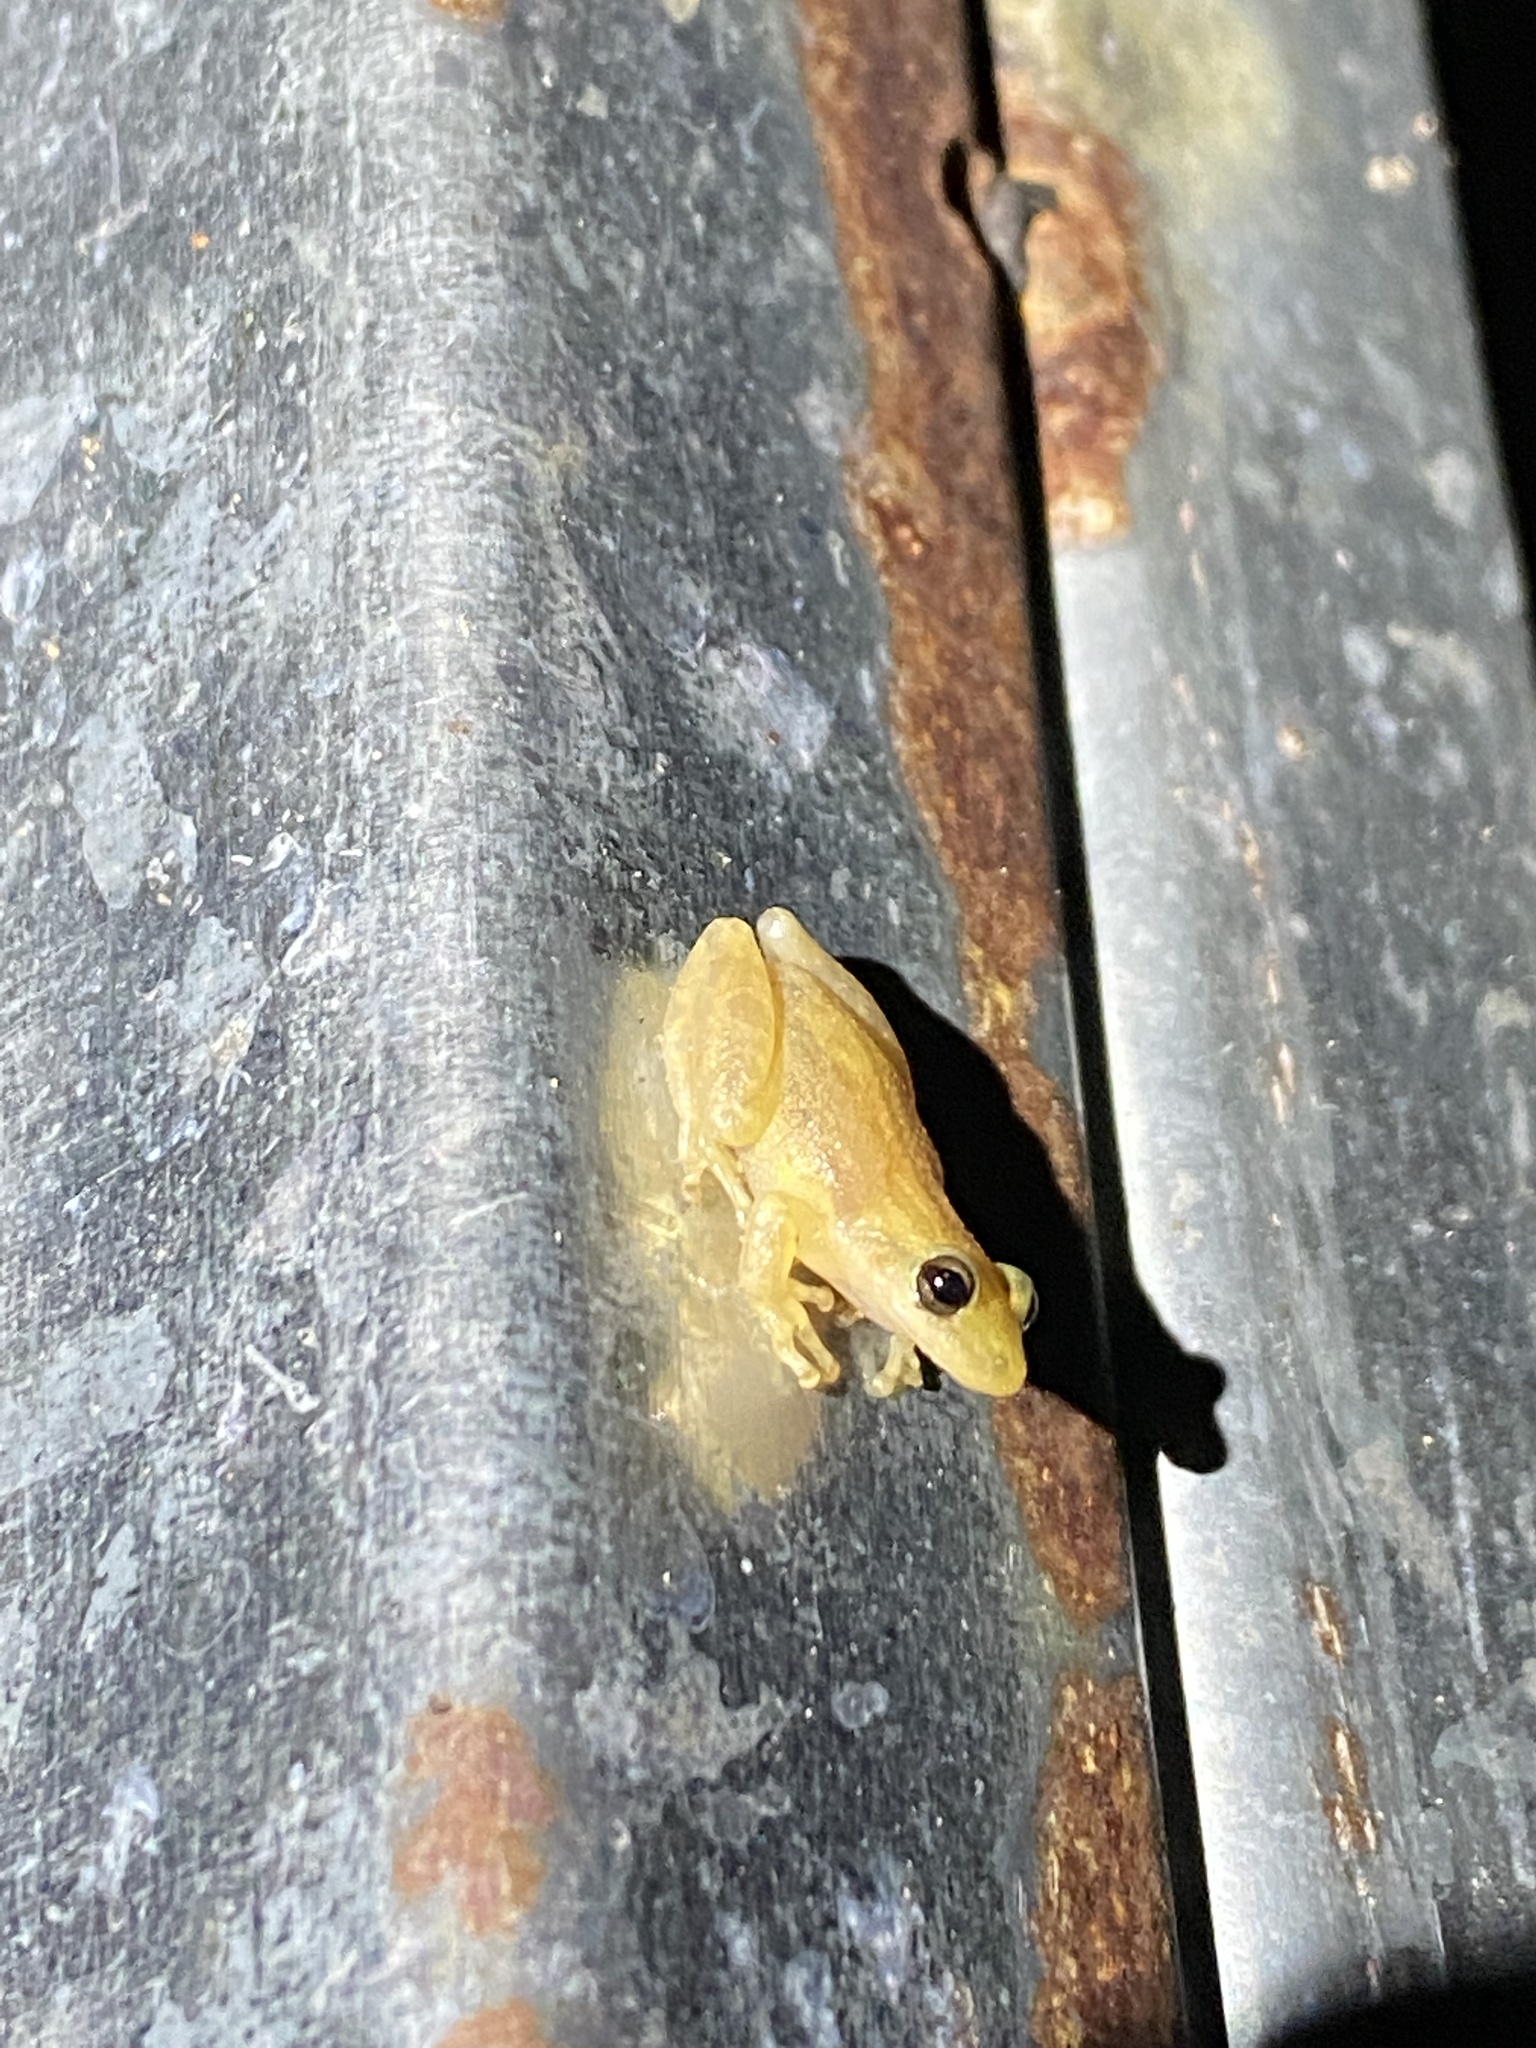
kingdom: Animalia
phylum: Chordata
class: Amphibia
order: Anura
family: Hylidae
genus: Scinax
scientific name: Scinax staufferi
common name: Stauffer's long-nosed treefrog
